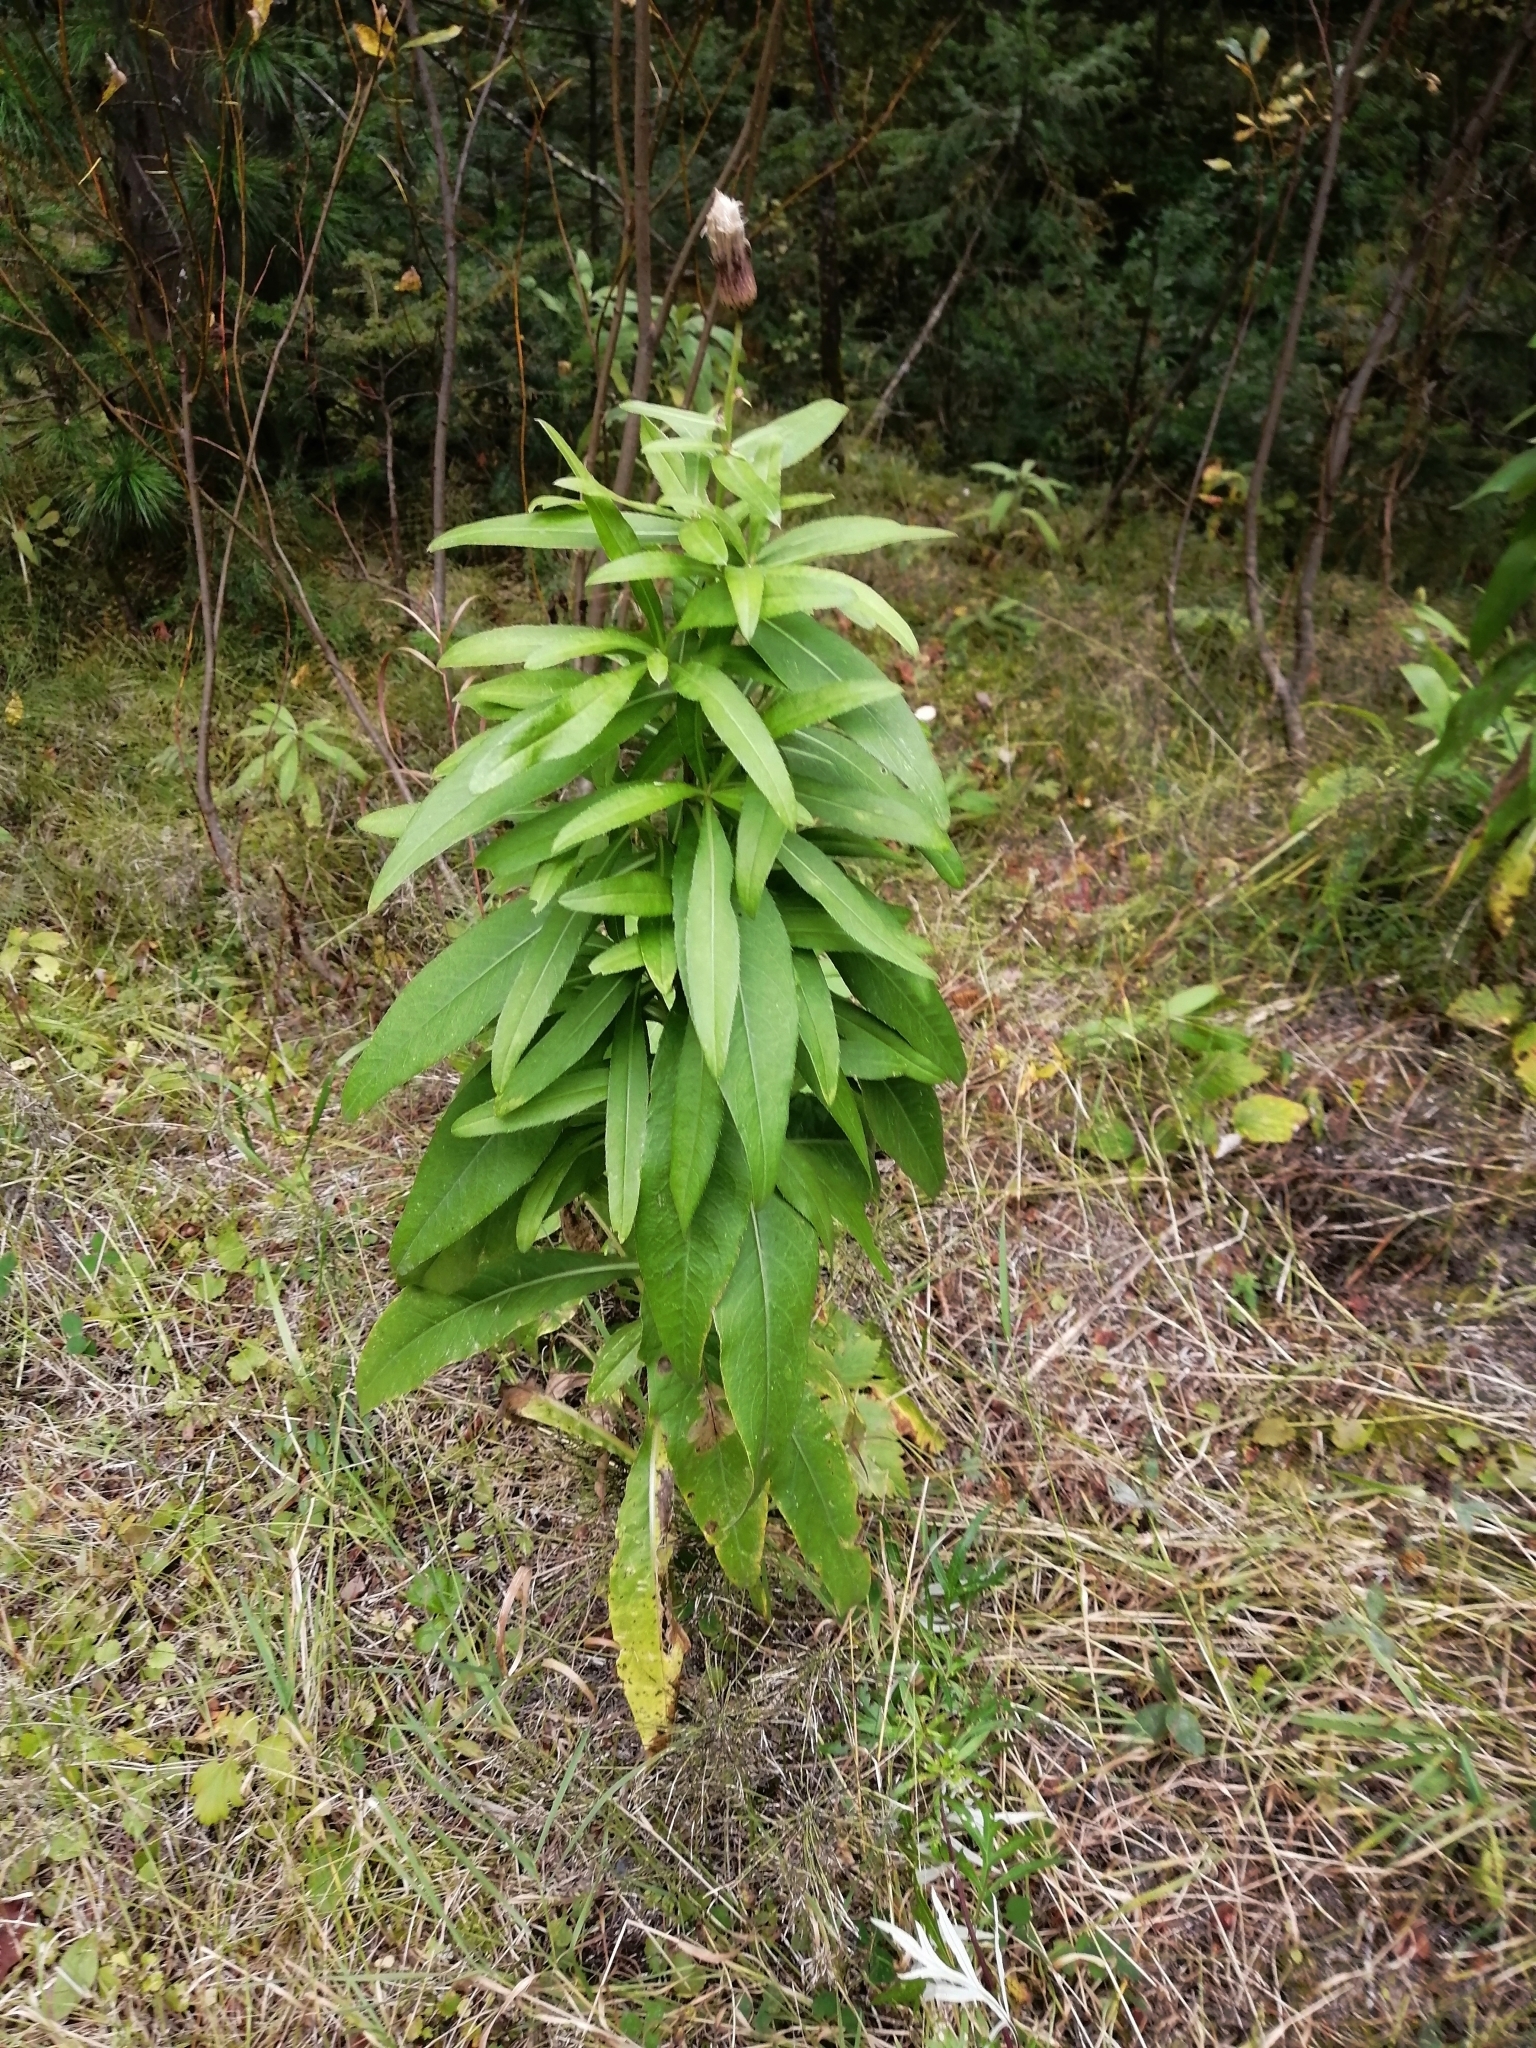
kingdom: Plantae
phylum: Tracheophyta
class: Magnoliopsida
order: Asterales
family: Asteraceae
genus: Cirsium
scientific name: Cirsium arvense
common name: Creeping thistle
